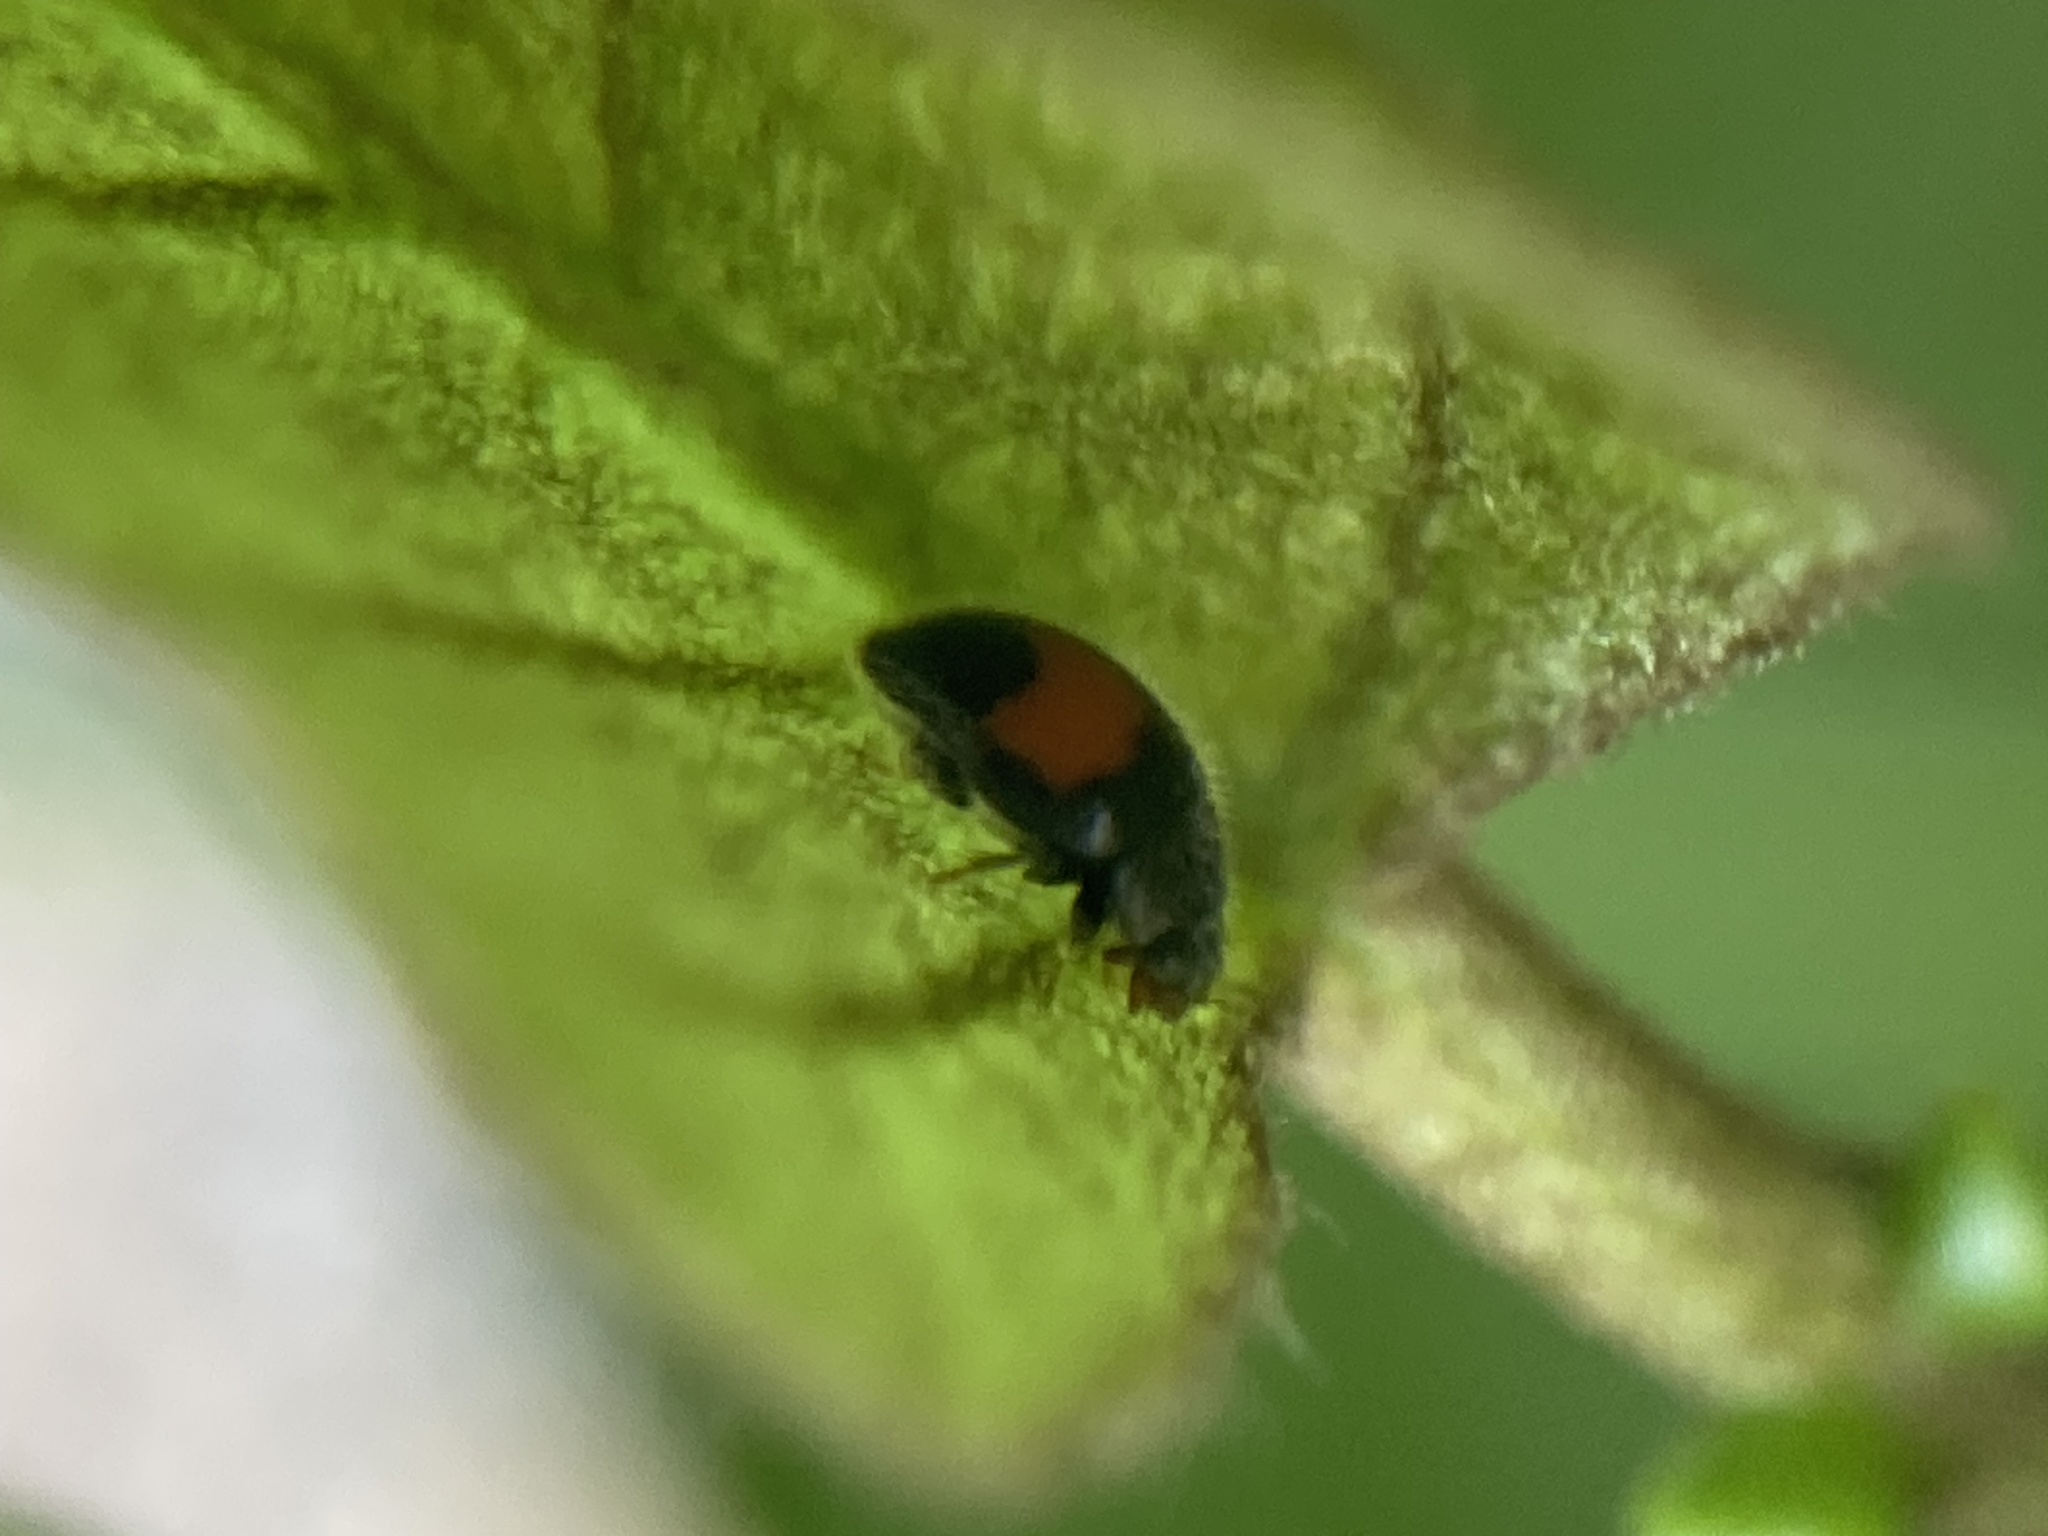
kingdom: Animalia
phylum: Arthropoda
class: Insecta
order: Coleoptera
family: Coccinellidae
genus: Scymnus
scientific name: Scymnus notescens
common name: Minute two-spotted ladybird beetle
